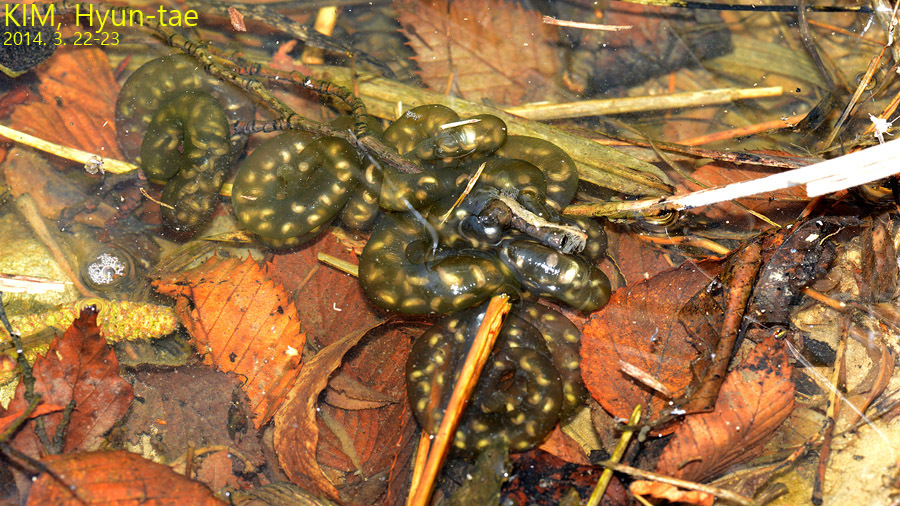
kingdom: Animalia
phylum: Chordata
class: Amphibia
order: Caudata
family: Hynobiidae
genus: Hynobius
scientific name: Hynobius yangi
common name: Yangi salamander
